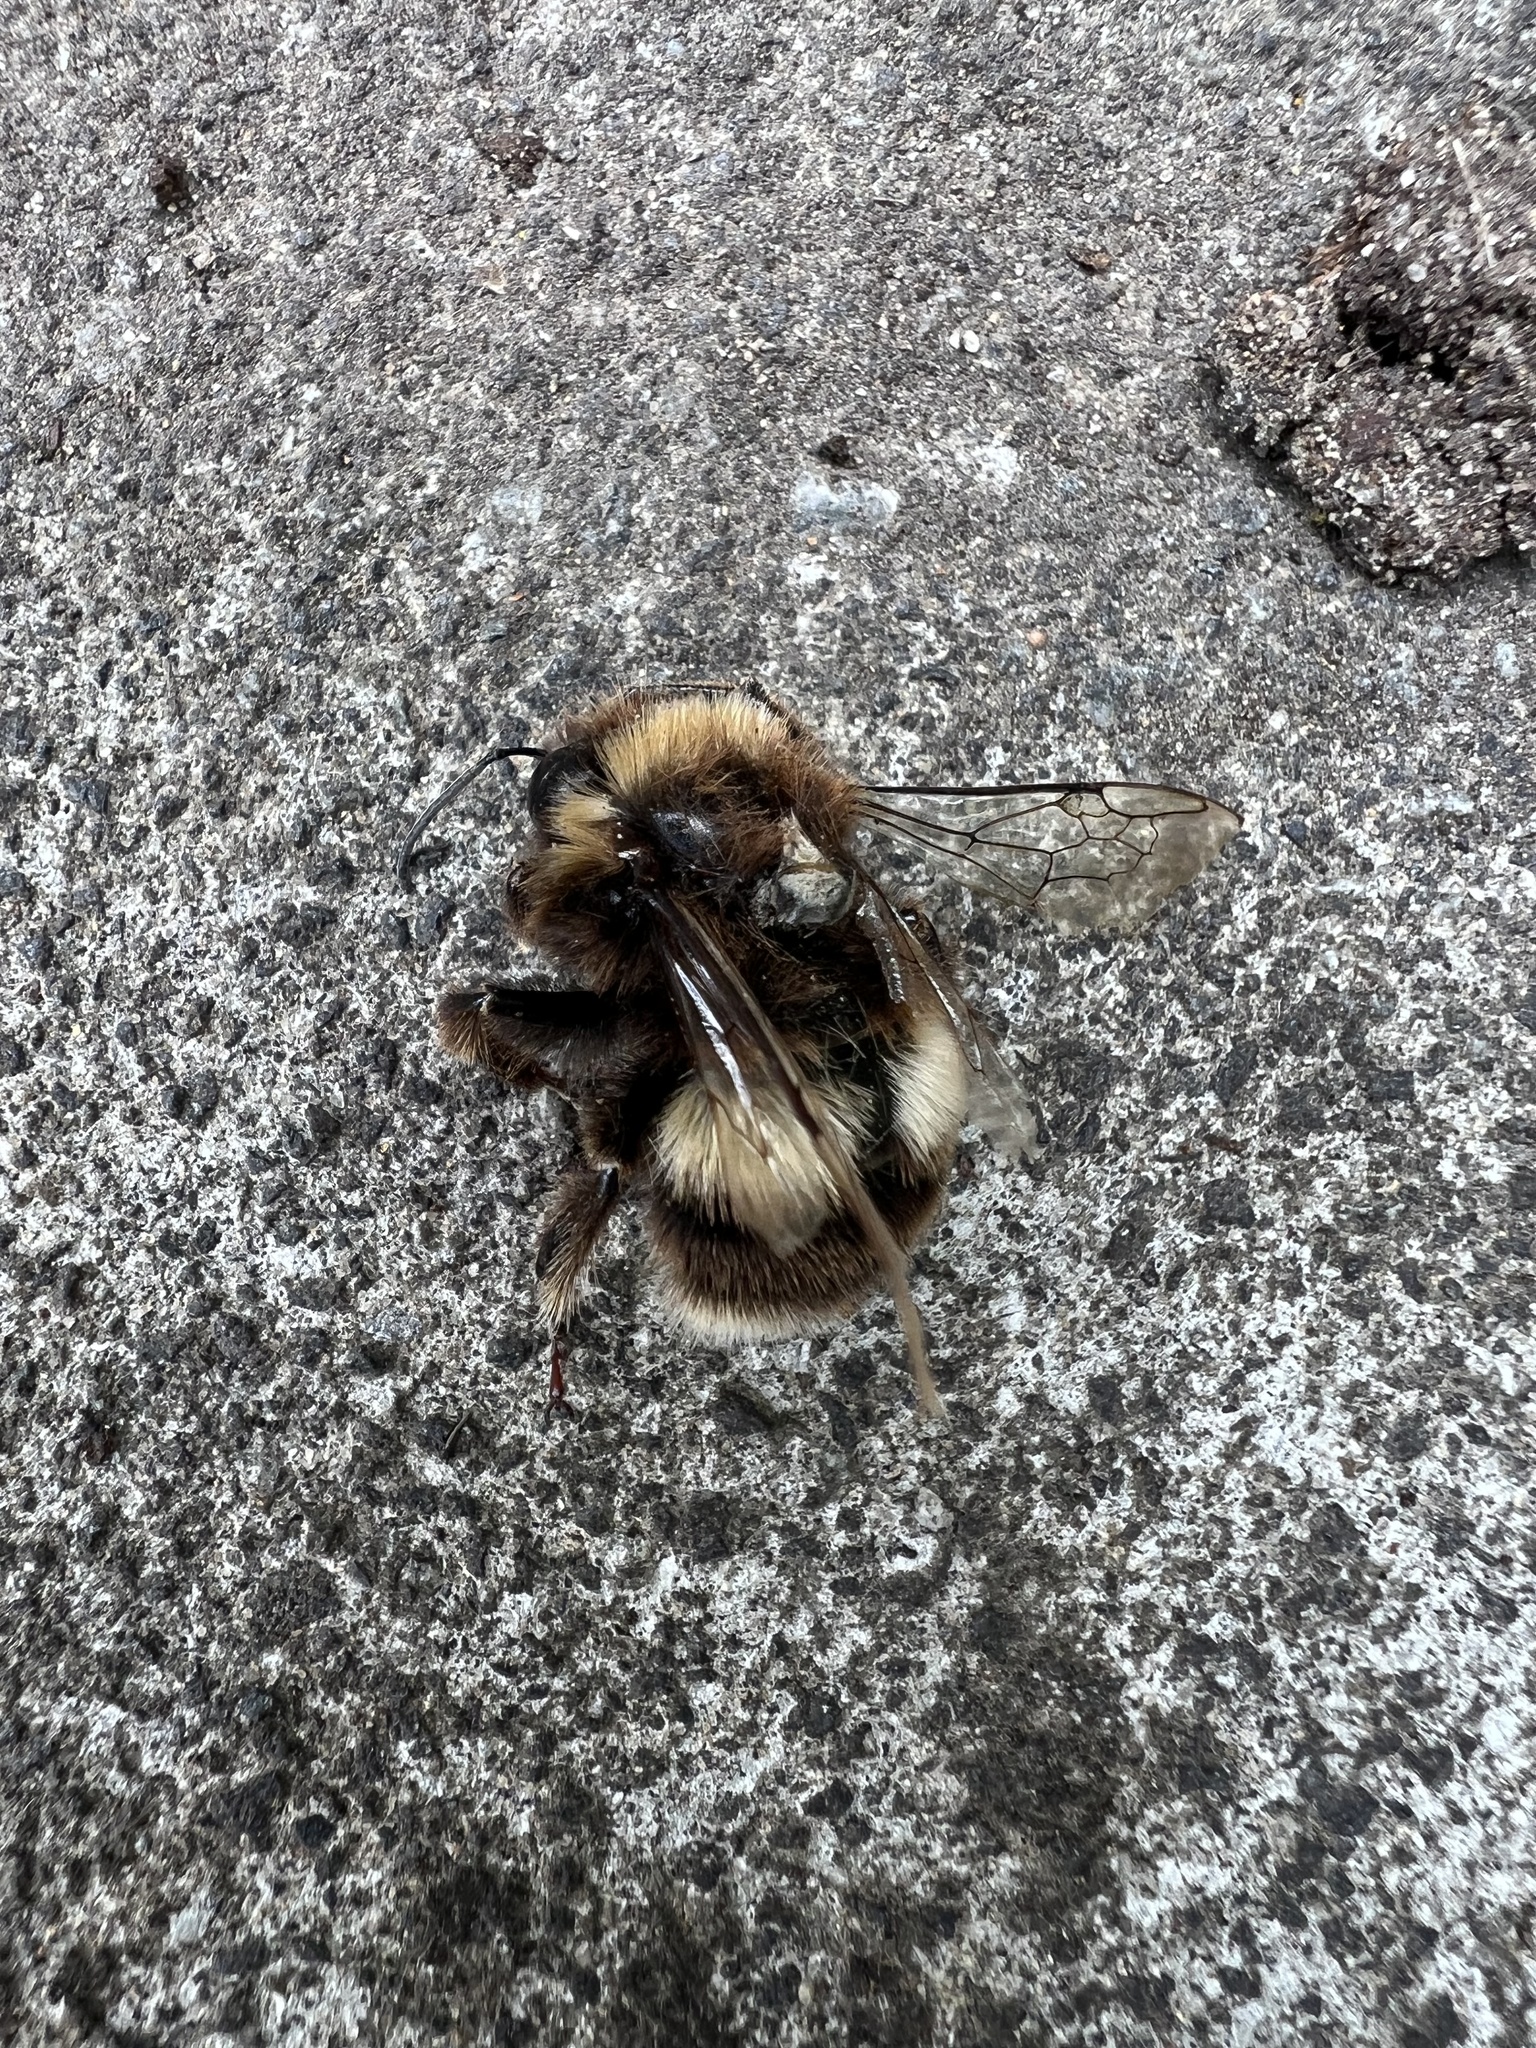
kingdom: Animalia
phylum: Arthropoda
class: Insecta
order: Hymenoptera
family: Apidae
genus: Bombus
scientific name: Bombus terrestris
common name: Buff-tailed bumblebee
